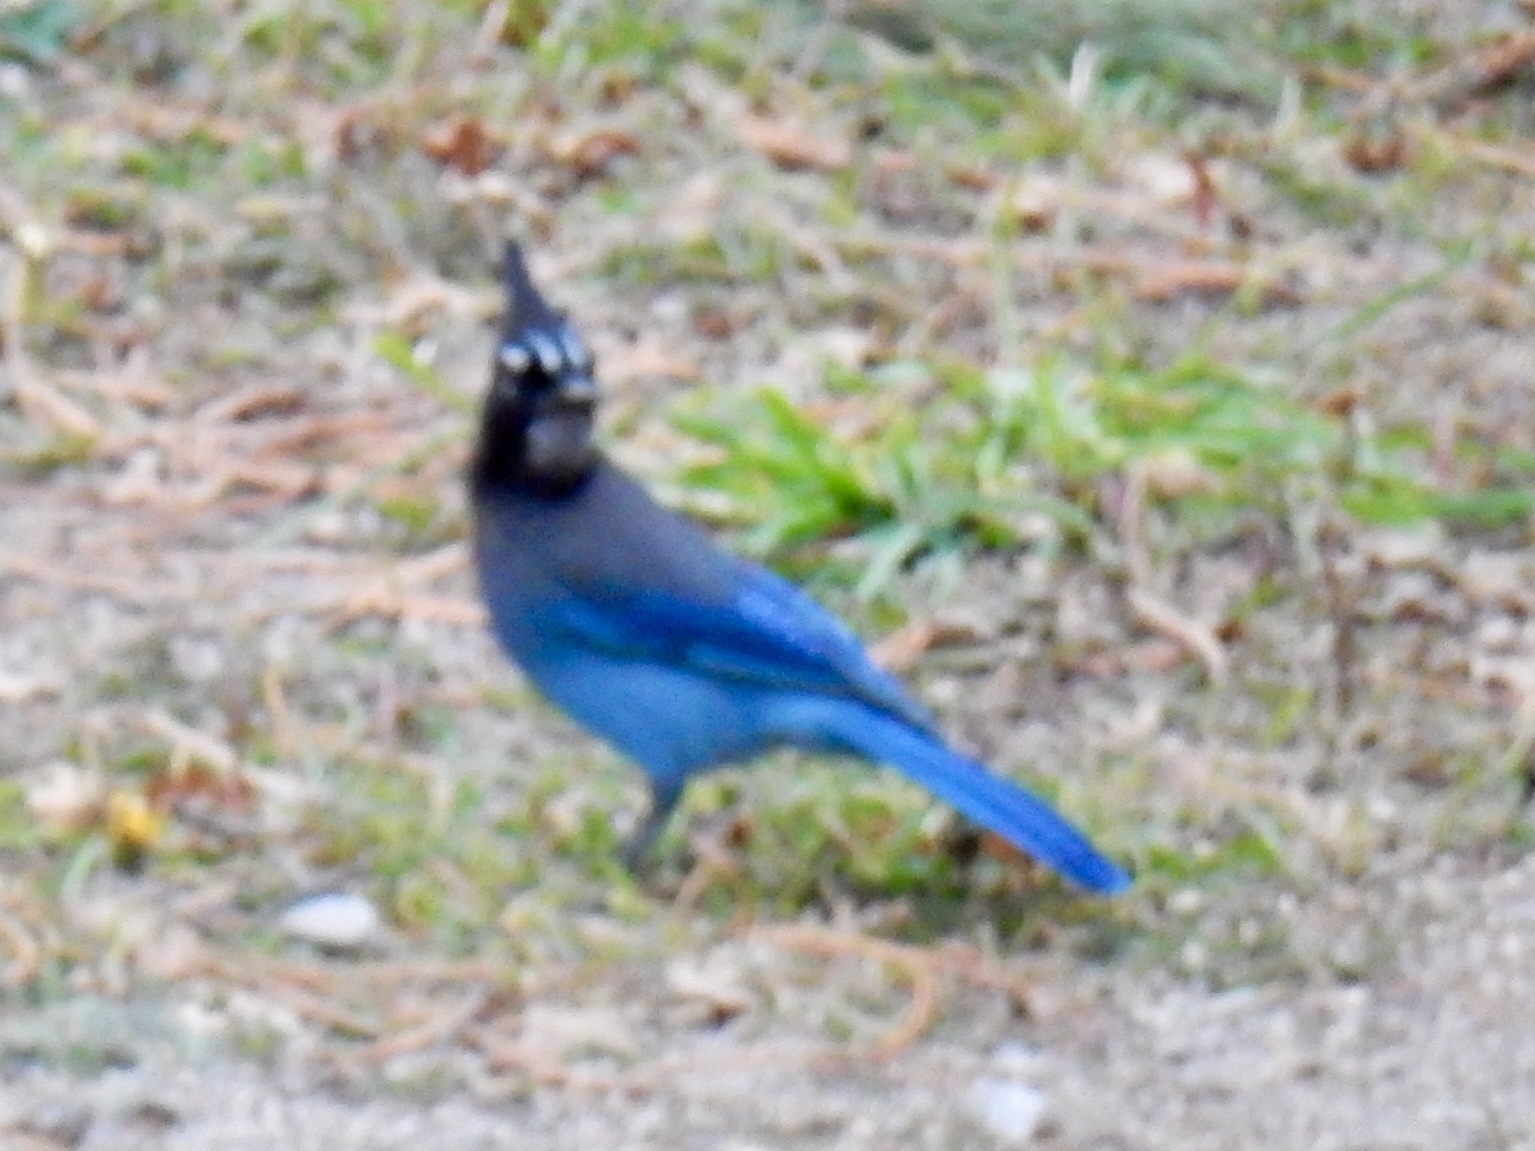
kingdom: Animalia
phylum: Chordata
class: Aves
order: Passeriformes
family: Corvidae
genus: Cyanocitta
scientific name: Cyanocitta stelleri
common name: Steller's jay
